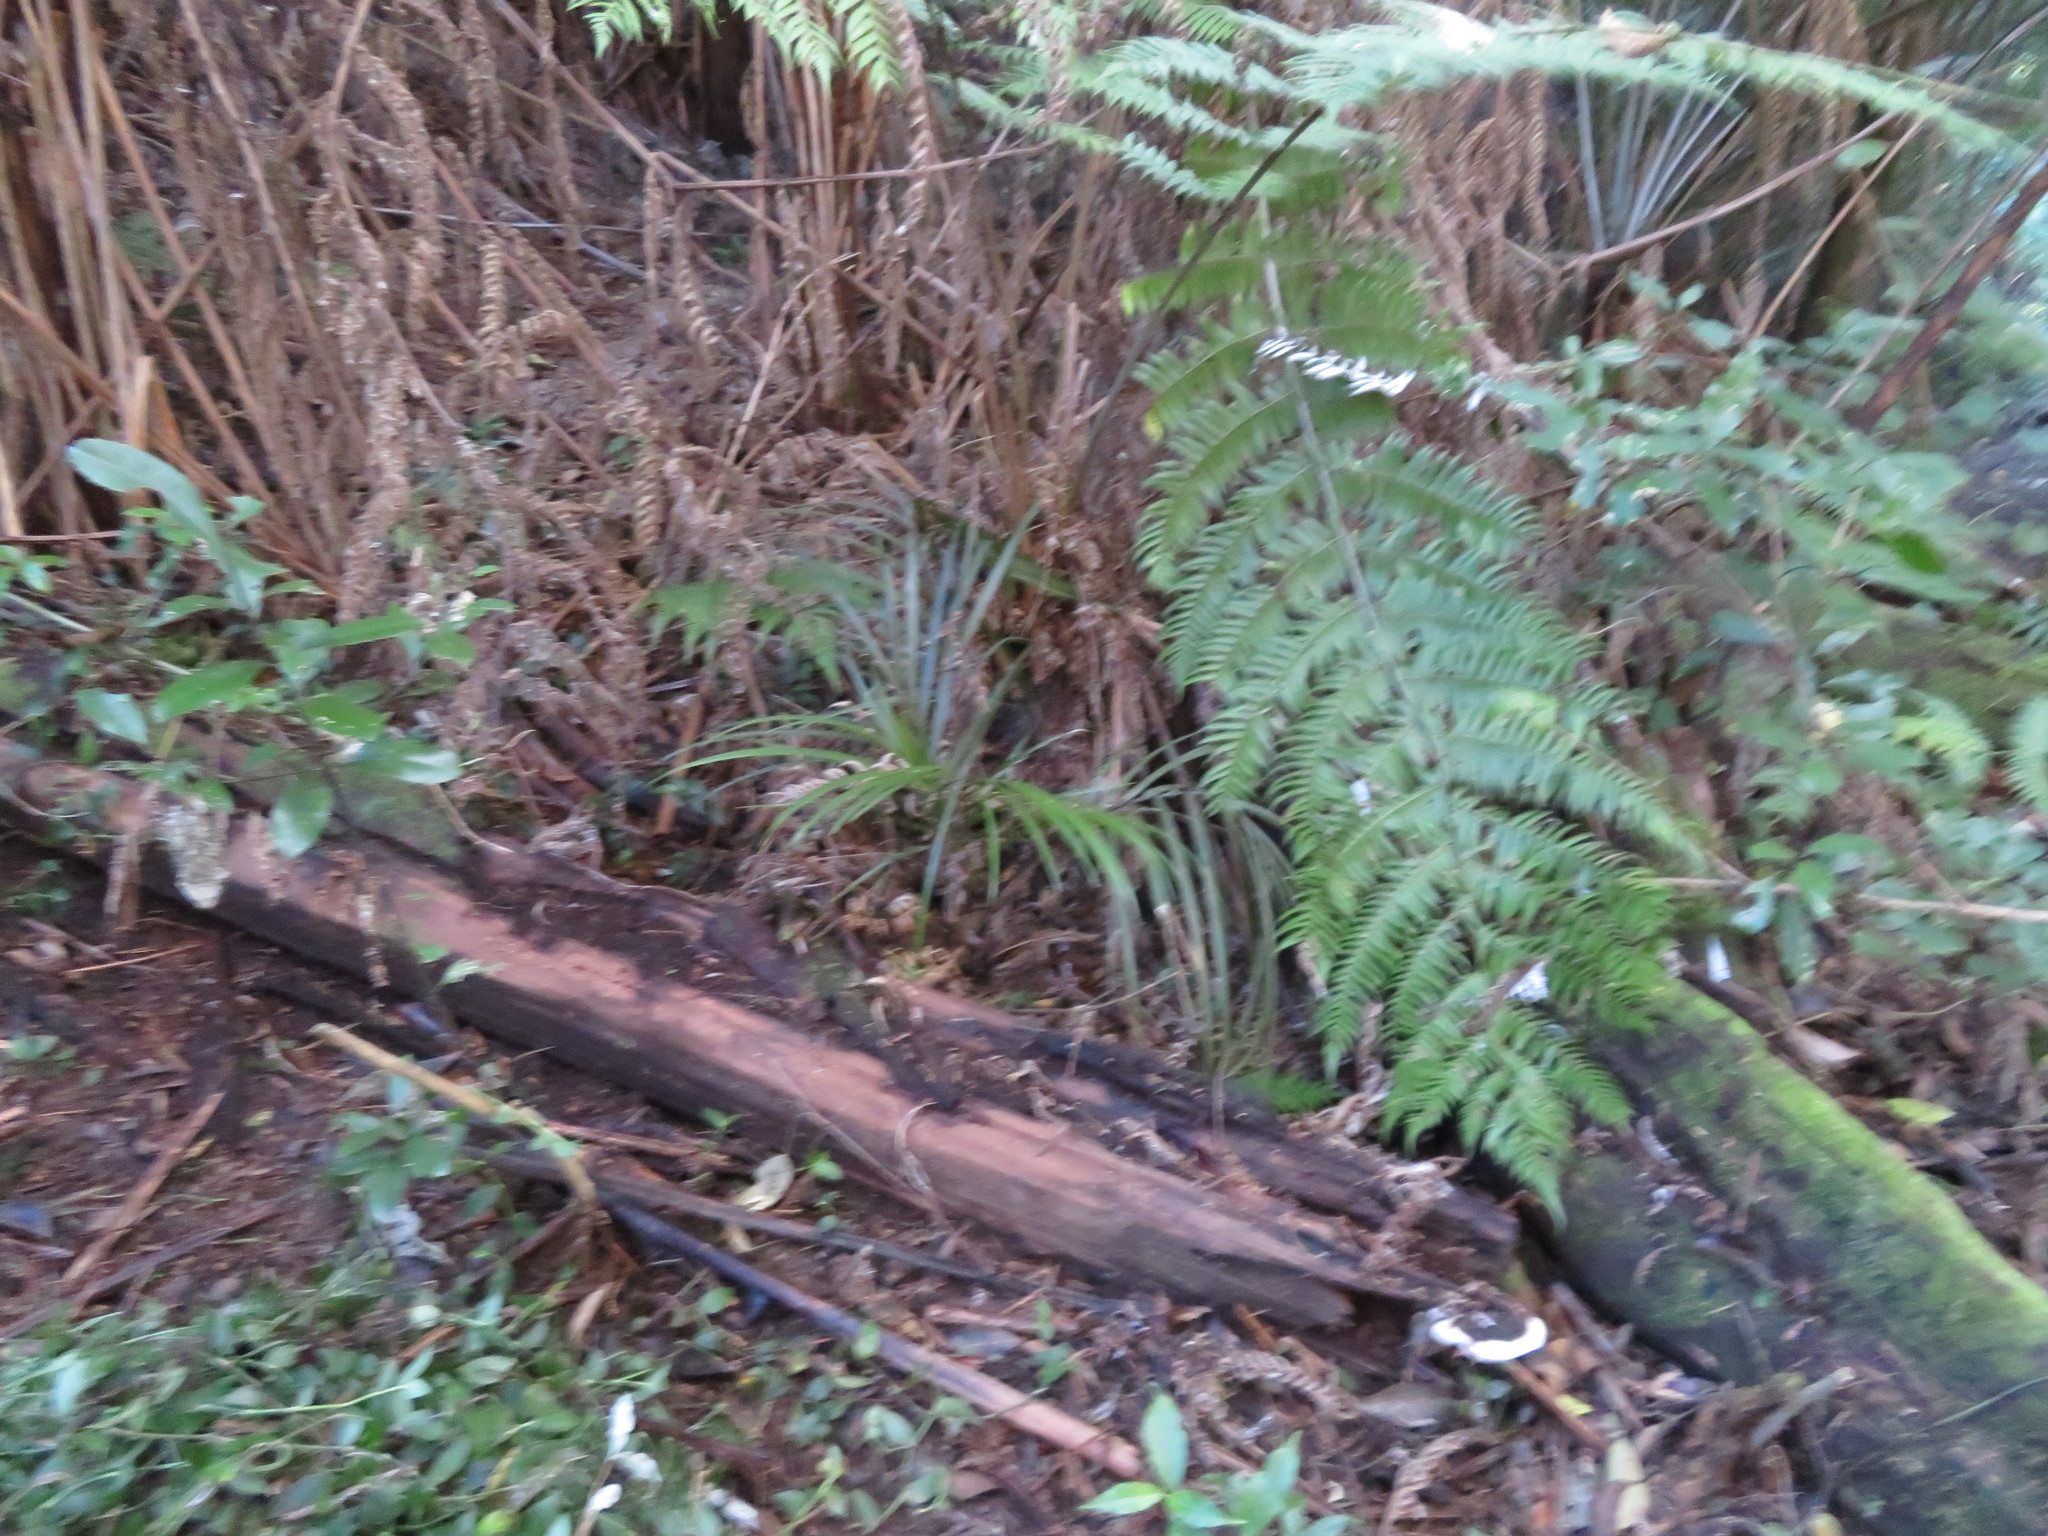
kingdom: Plantae
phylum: Tracheophyta
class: Liliopsida
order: Arecales
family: Arecaceae
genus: Rhopalostylis
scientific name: Rhopalostylis sapida
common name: Feather-duster palm
